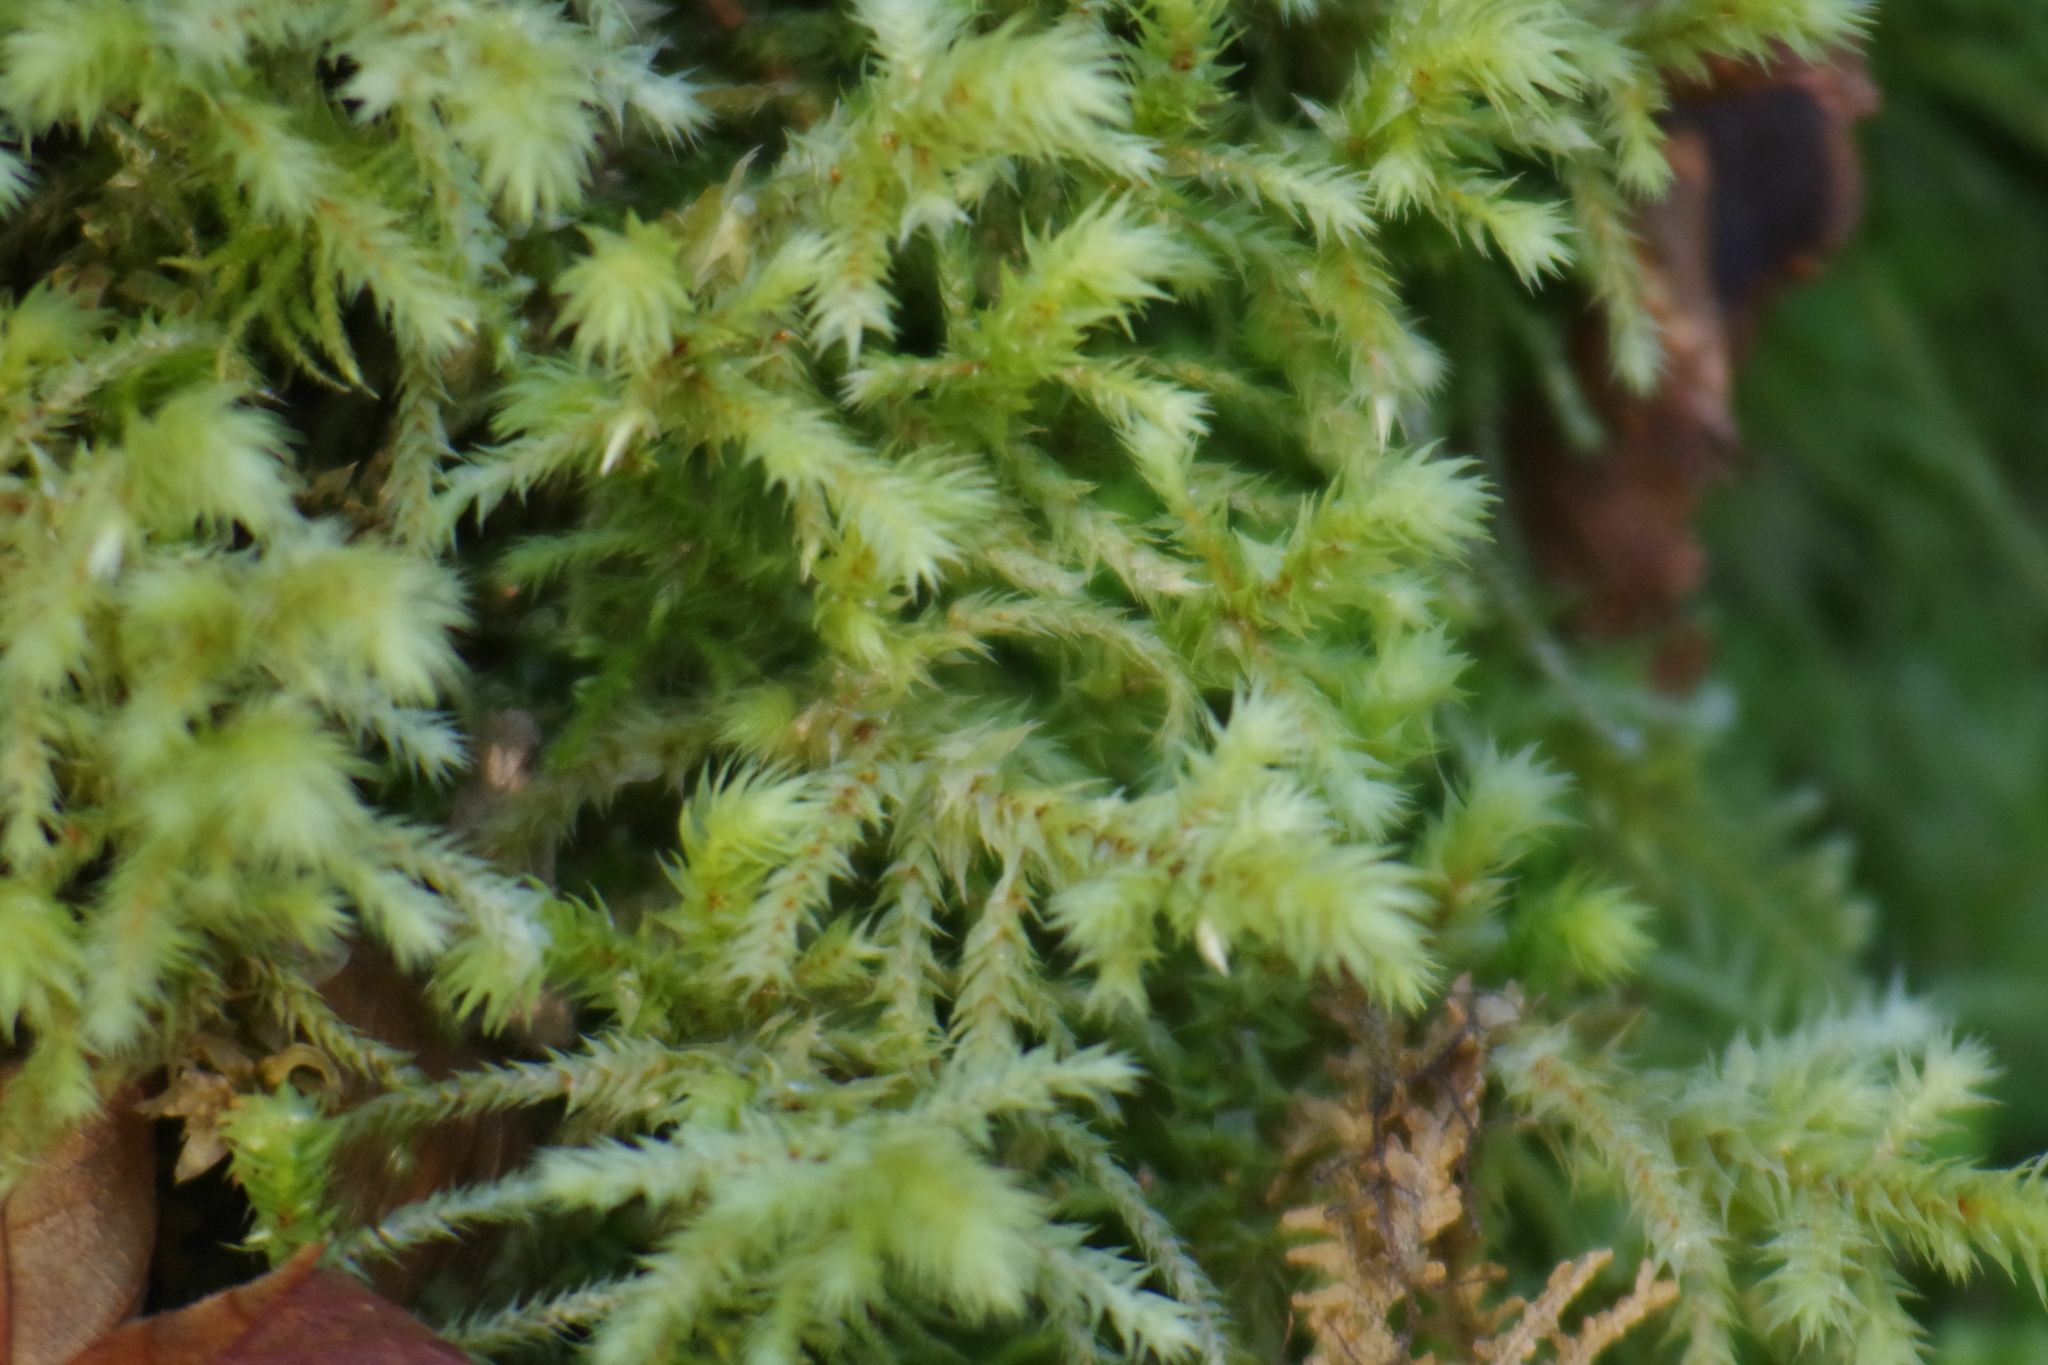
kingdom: Plantae
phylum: Bryophyta
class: Bryopsida
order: Hypnales
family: Hylocomiaceae
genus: Hylocomiadelphus
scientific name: Hylocomiadelphus triquetrus
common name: Rough goose neck moss
